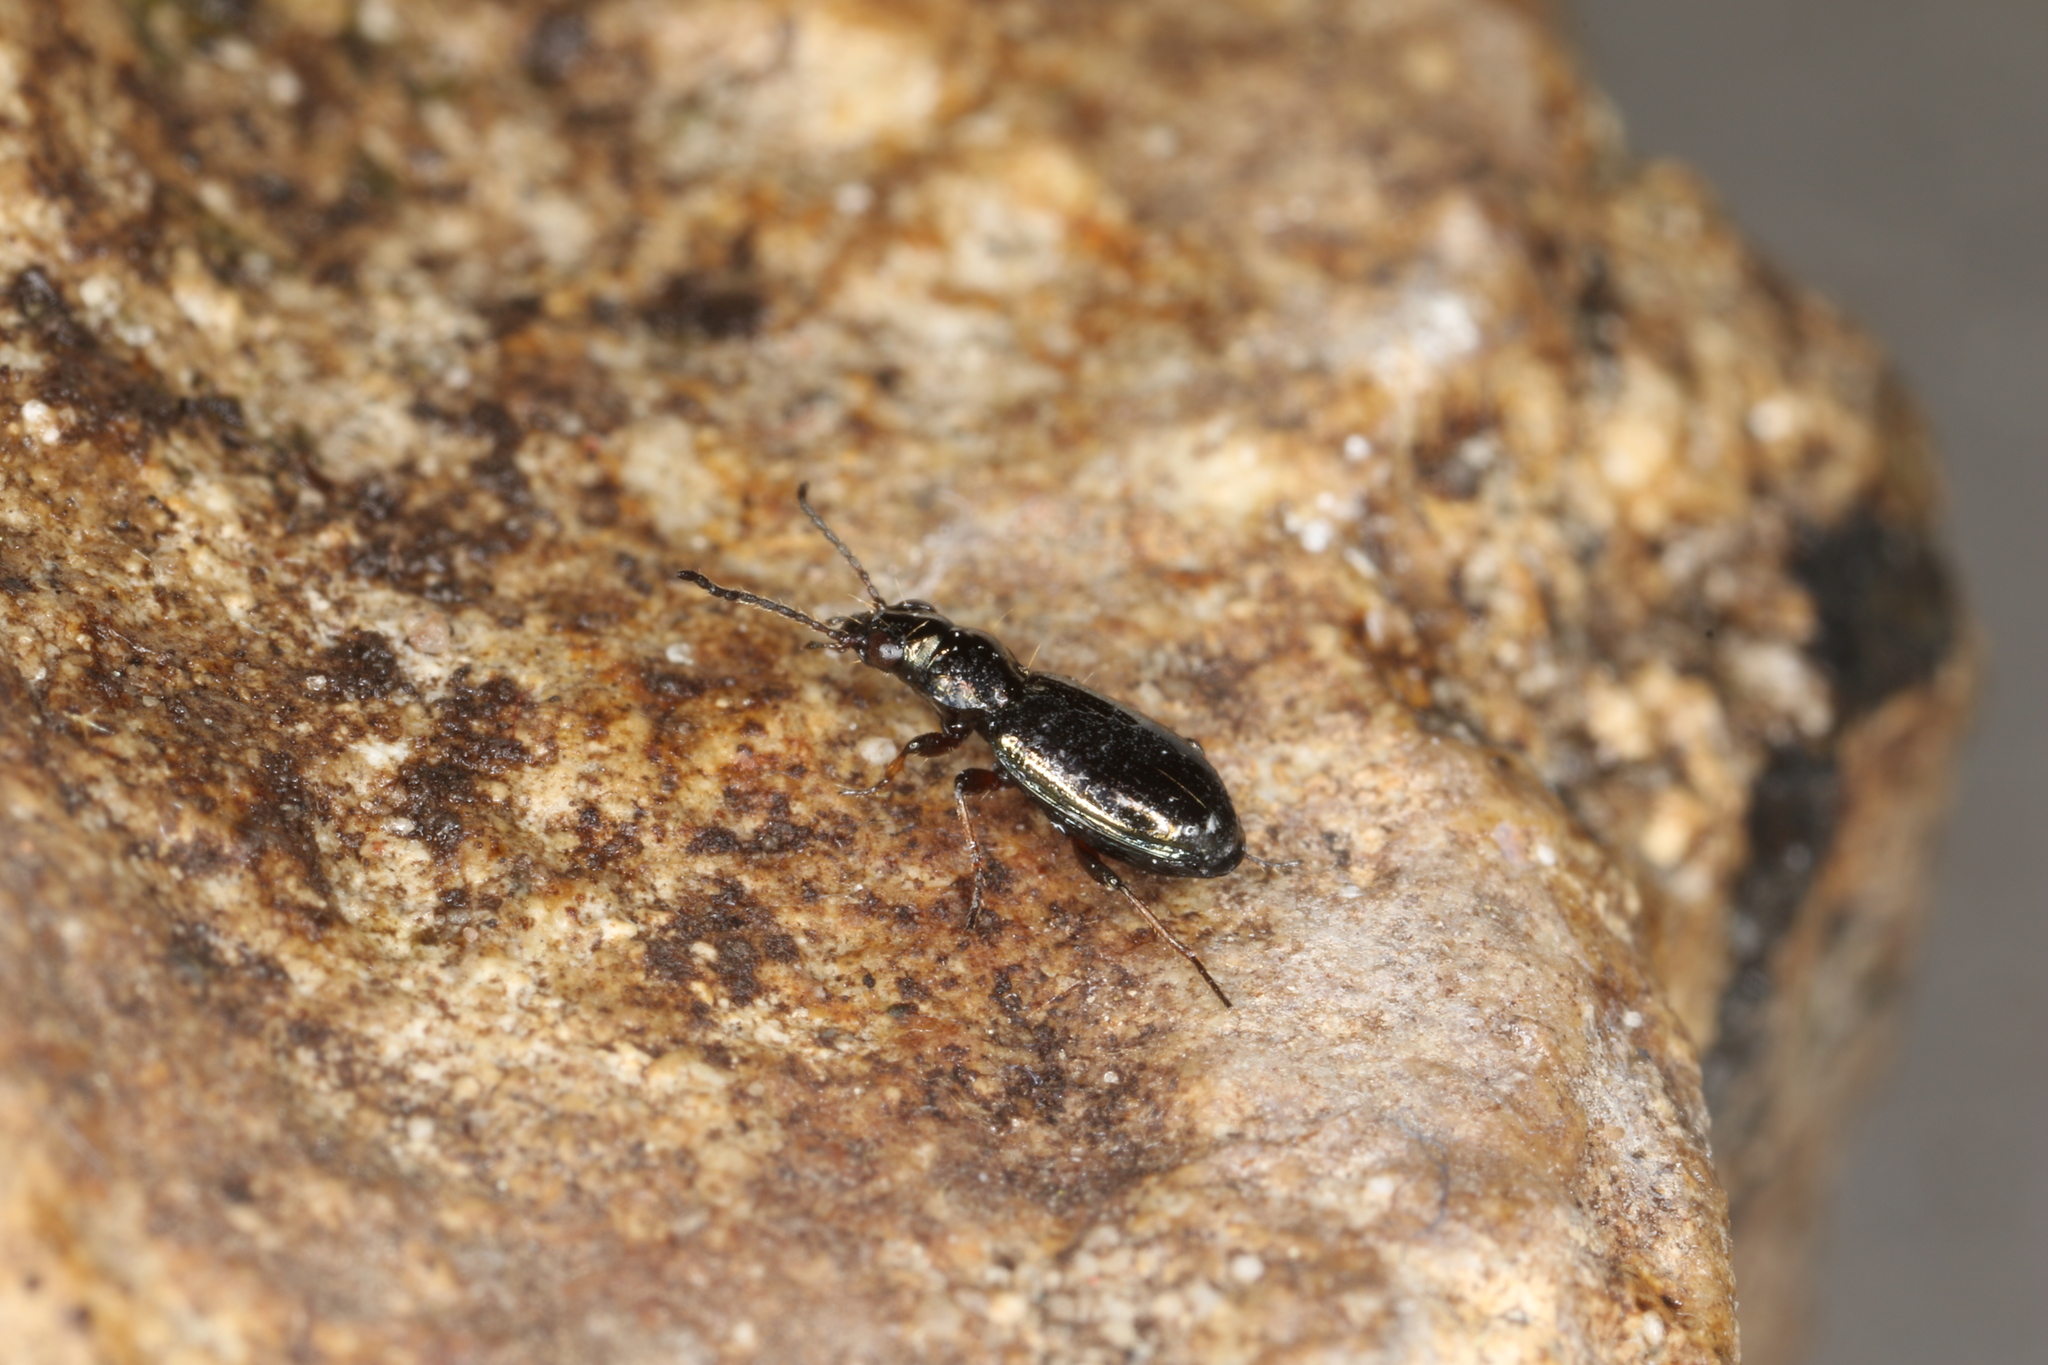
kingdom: Animalia
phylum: Arthropoda
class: Insecta
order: Coleoptera
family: Carabidae
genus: Bembidion
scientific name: Bembidion lampros
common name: Shiny riverbank ground beetle
